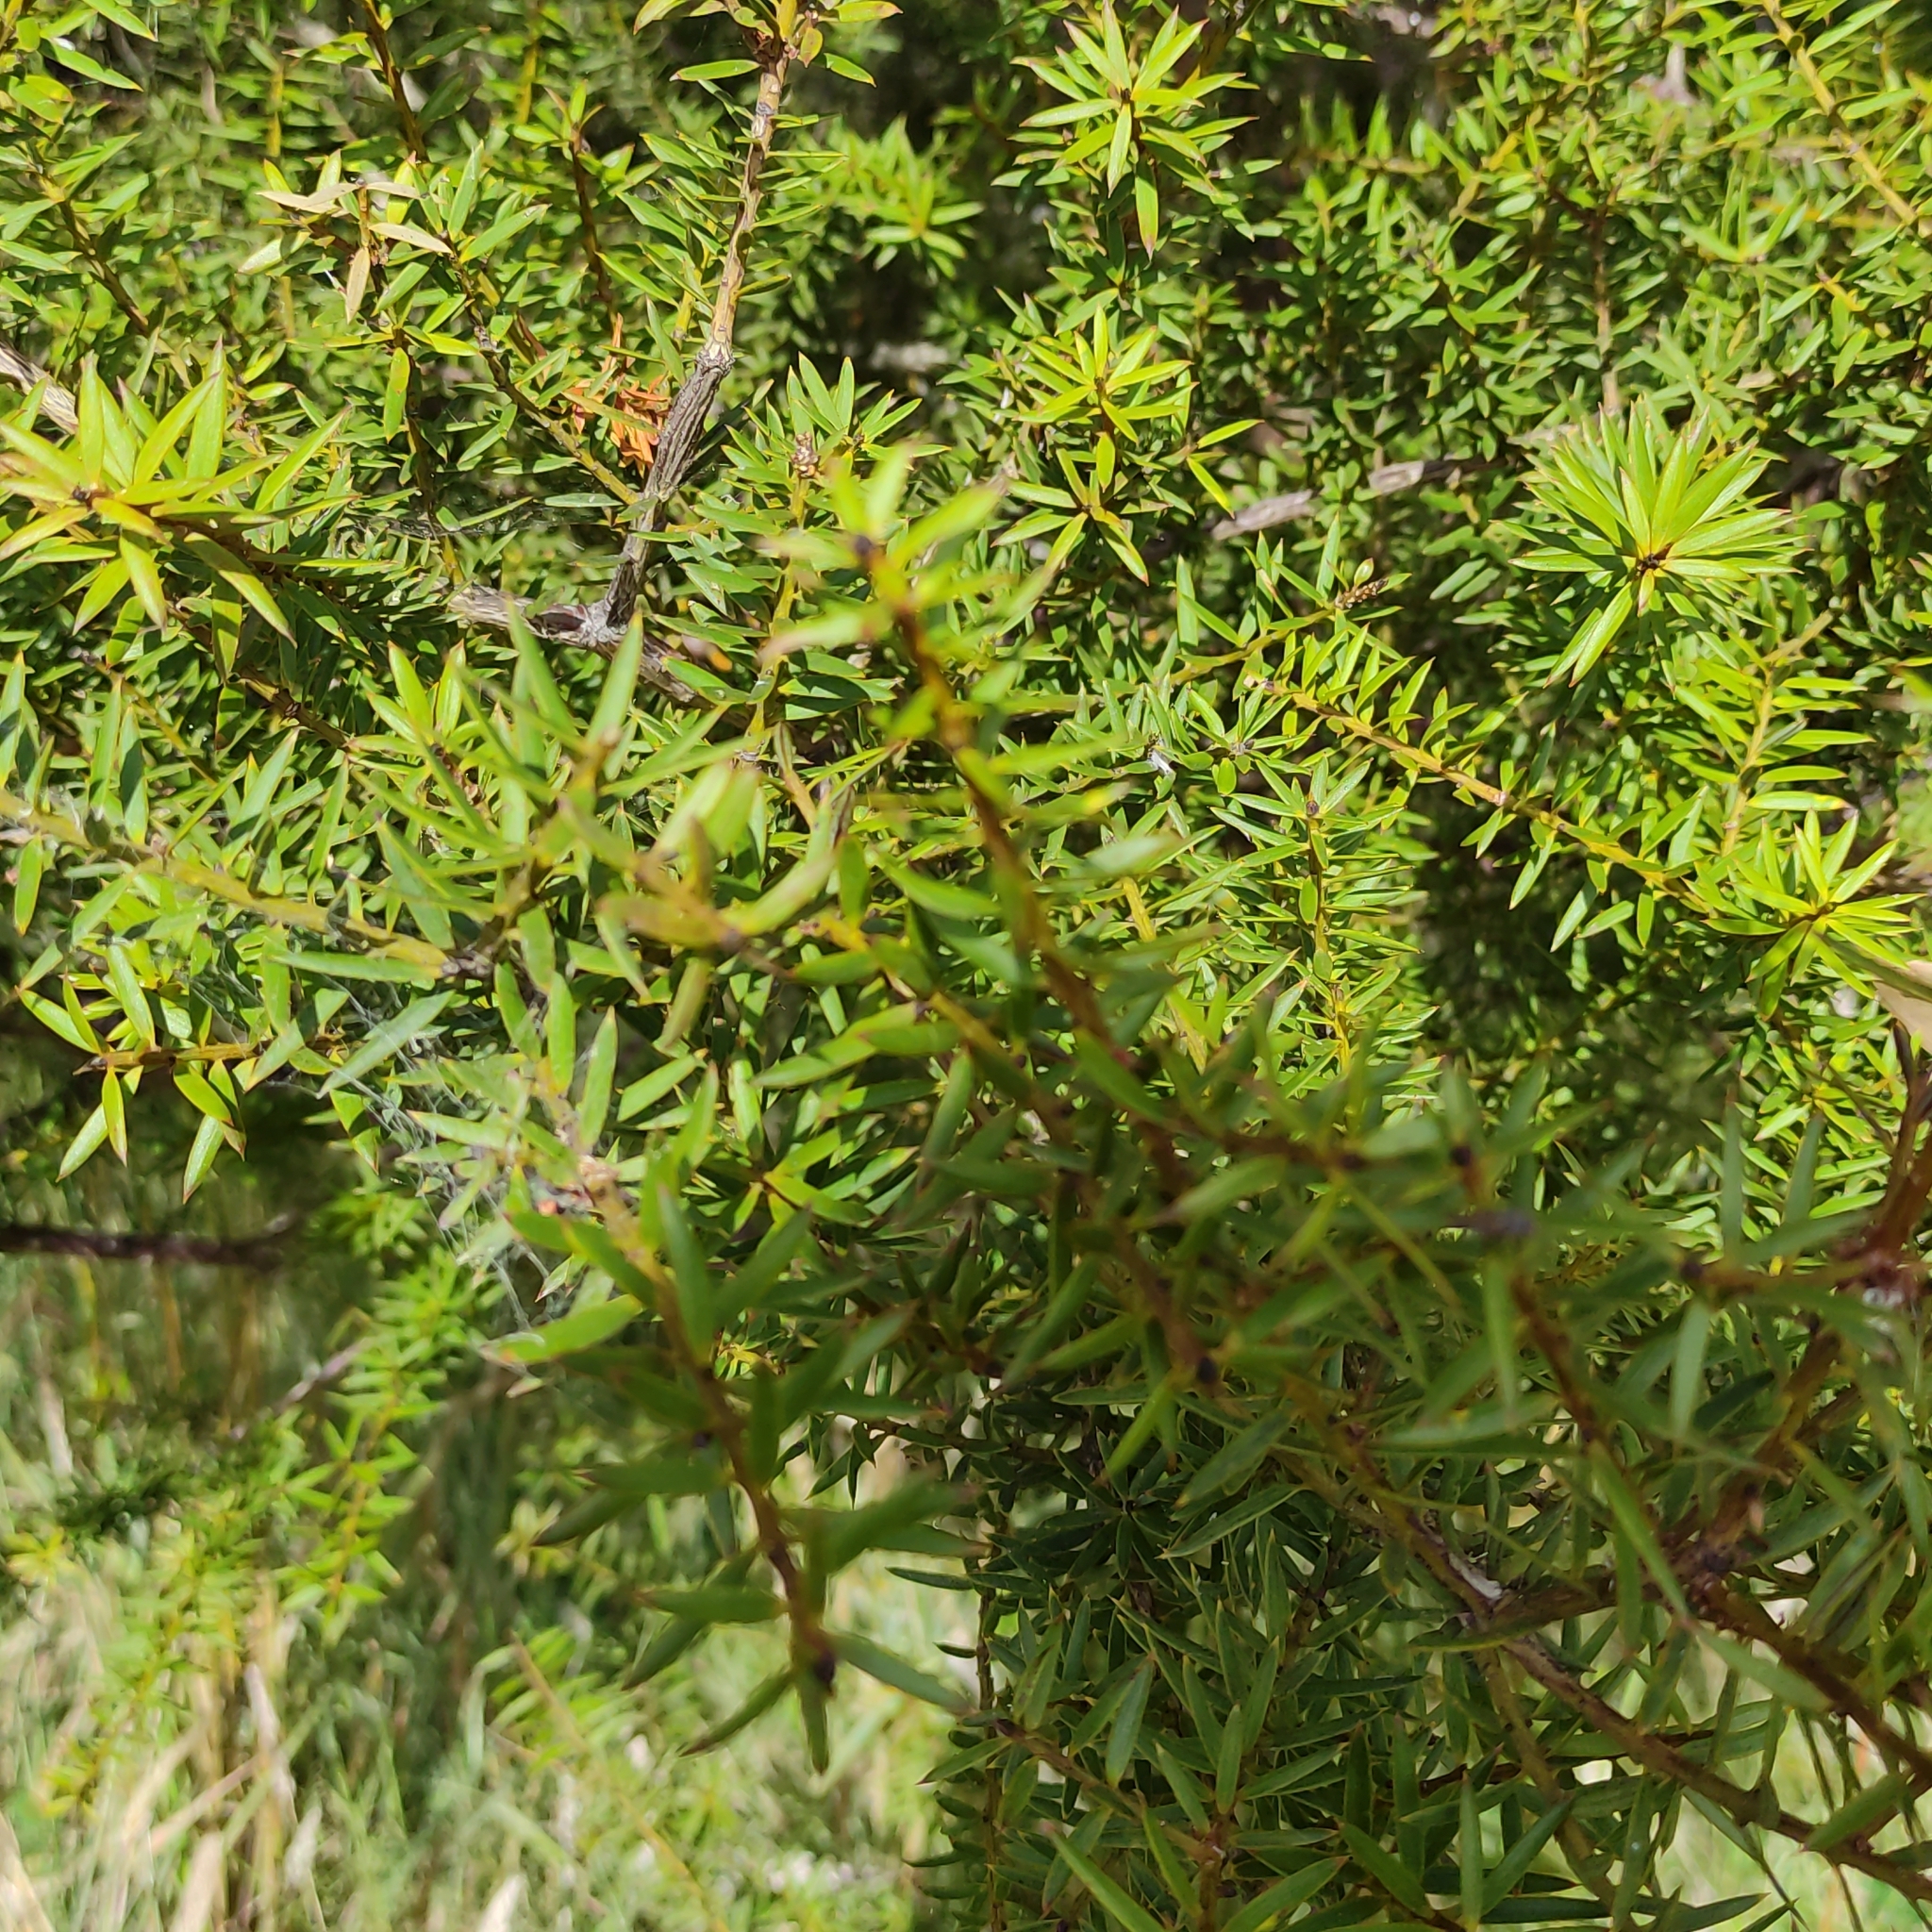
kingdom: Plantae
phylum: Tracheophyta
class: Pinopsida
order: Pinales
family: Podocarpaceae
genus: Podocarpus
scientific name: Podocarpus totara
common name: Totara
